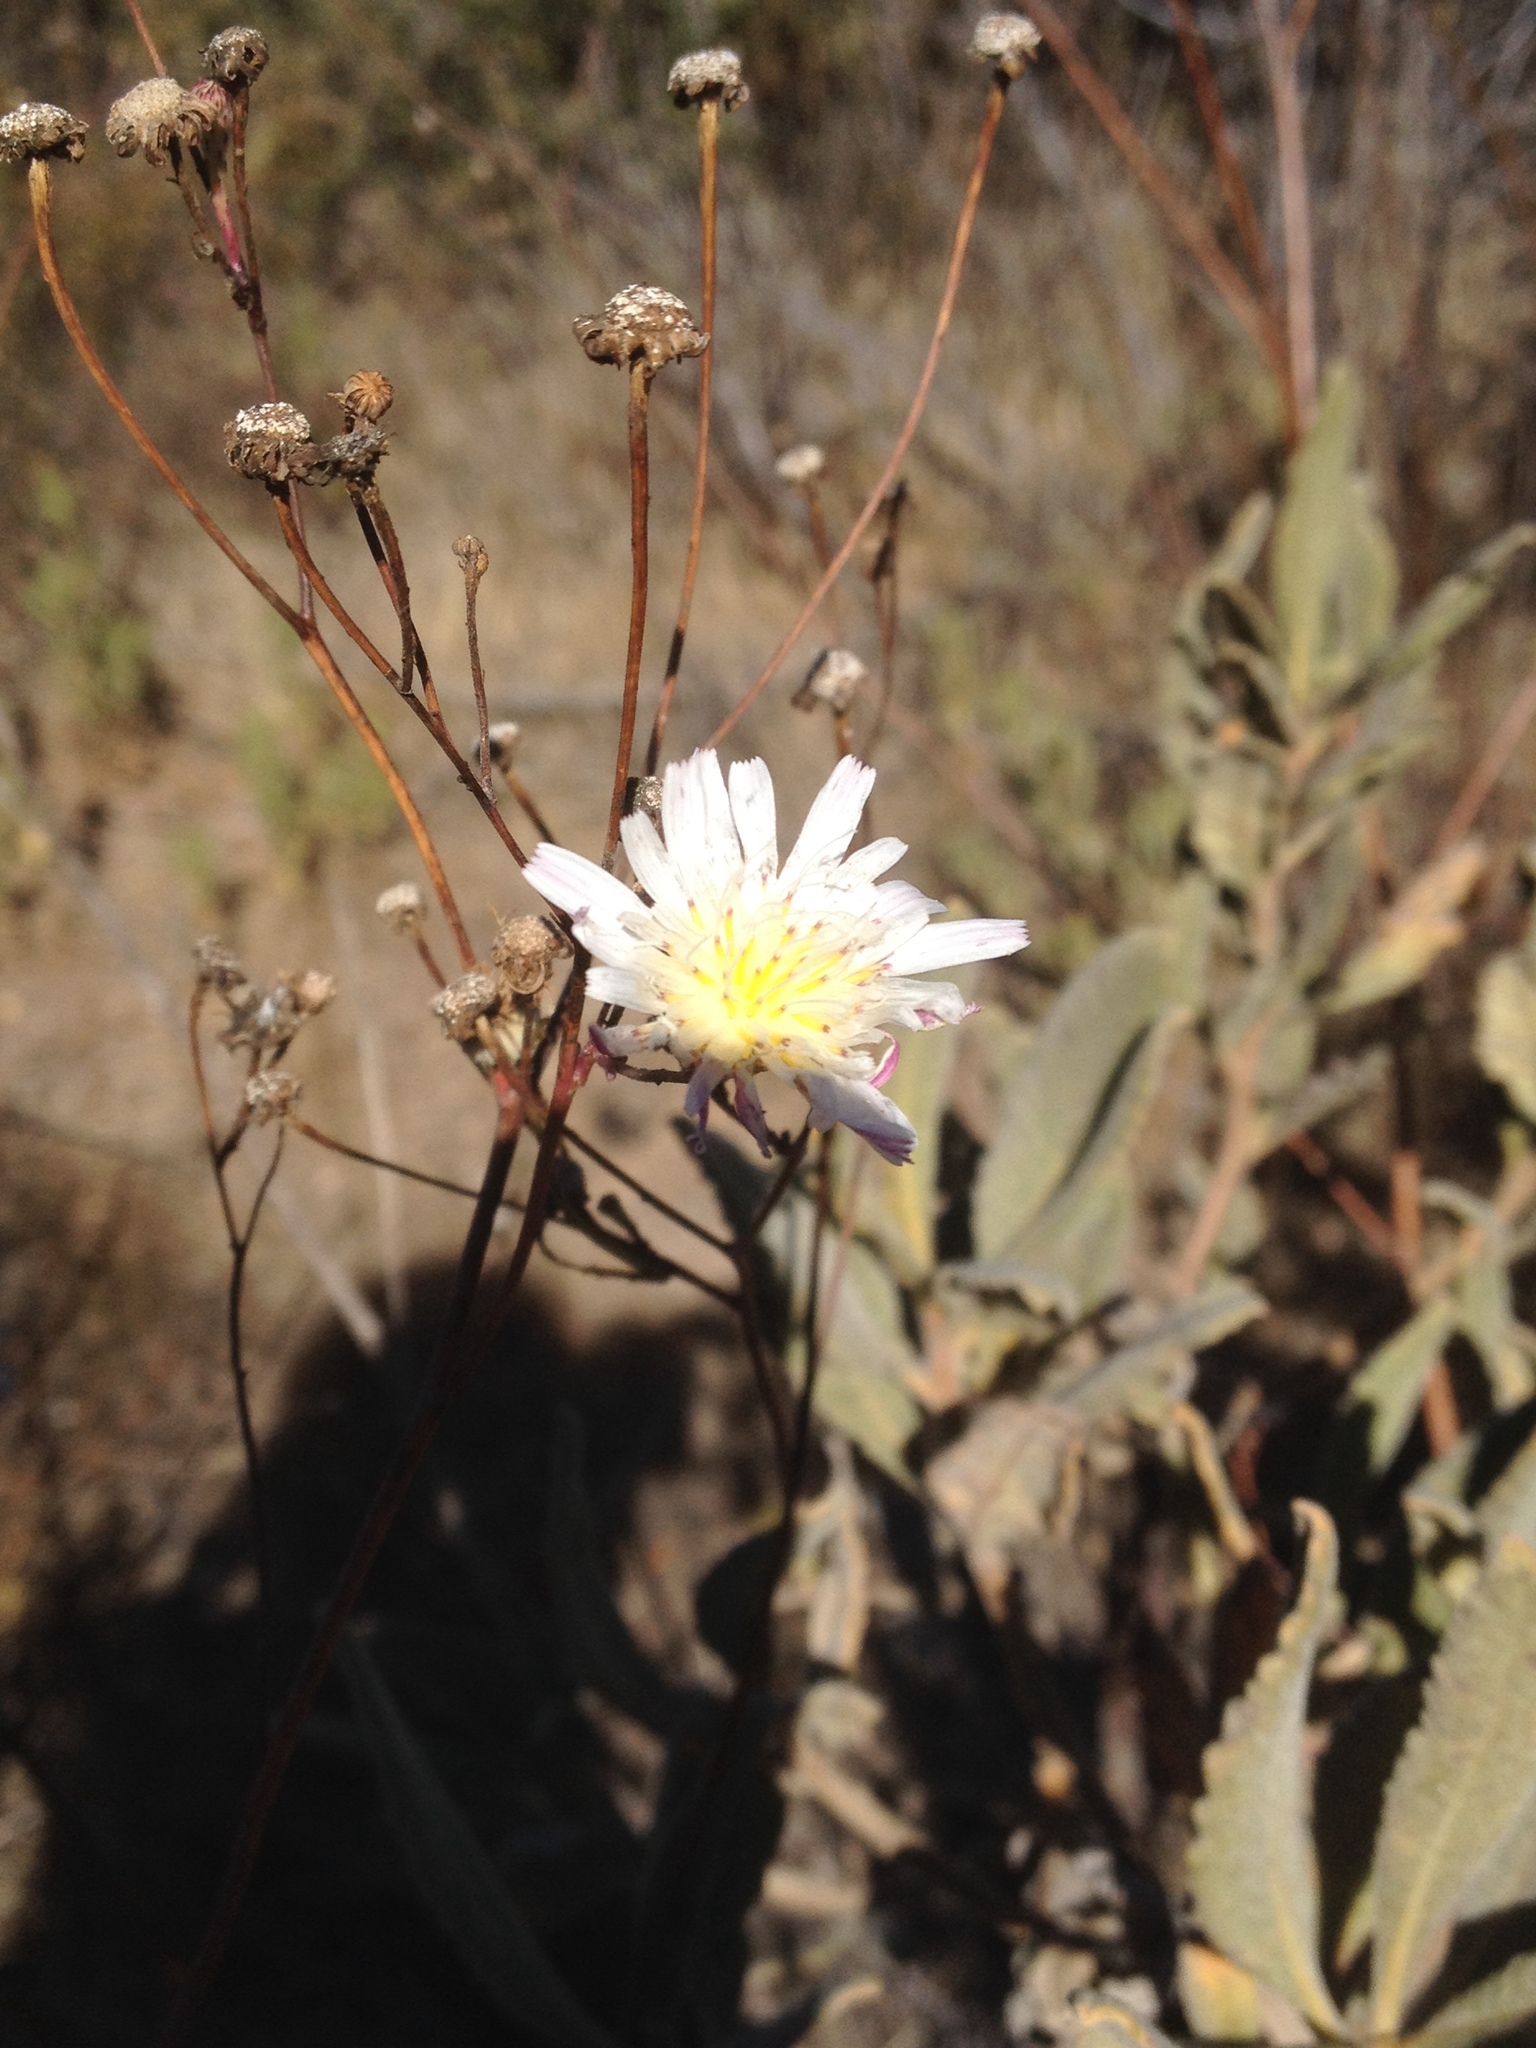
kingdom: Plantae
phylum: Tracheophyta
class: Magnoliopsida
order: Asterales
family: Asteraceae
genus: Malacothrix
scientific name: Malacothrix saxatilis
